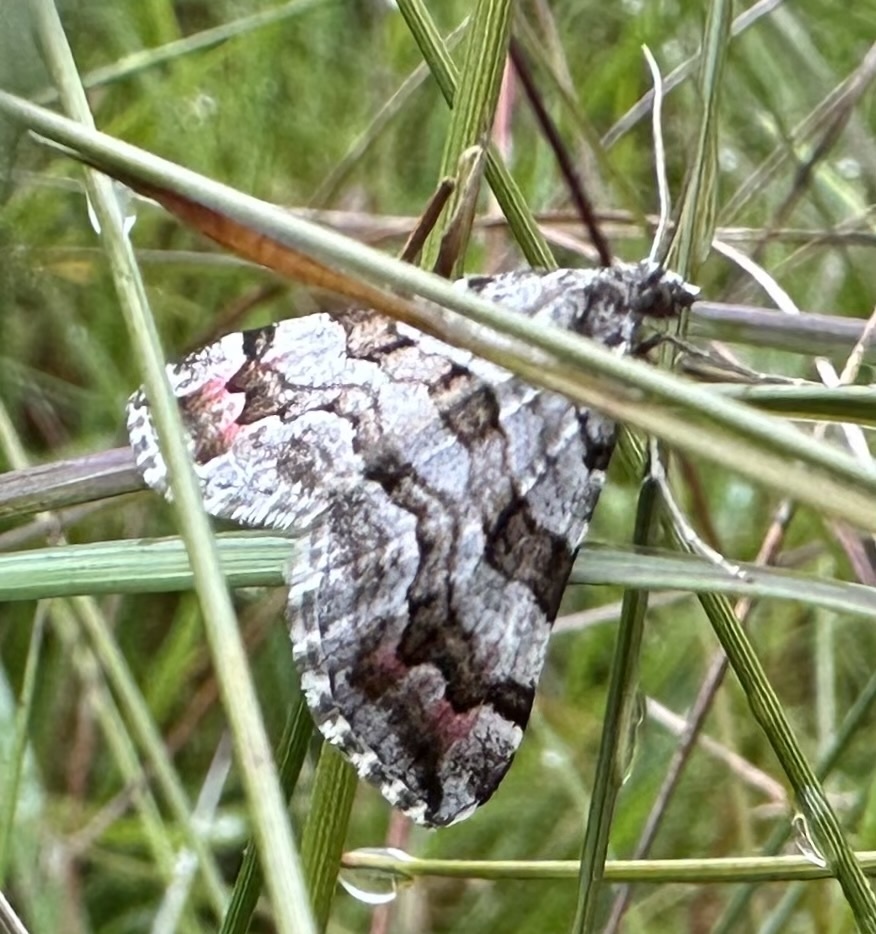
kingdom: Animalia
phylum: Arthropoda
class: Insecta
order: Lepidoptera
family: Geometridae
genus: Carsia
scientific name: Carsia sororiata
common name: Manchester treble-bar
